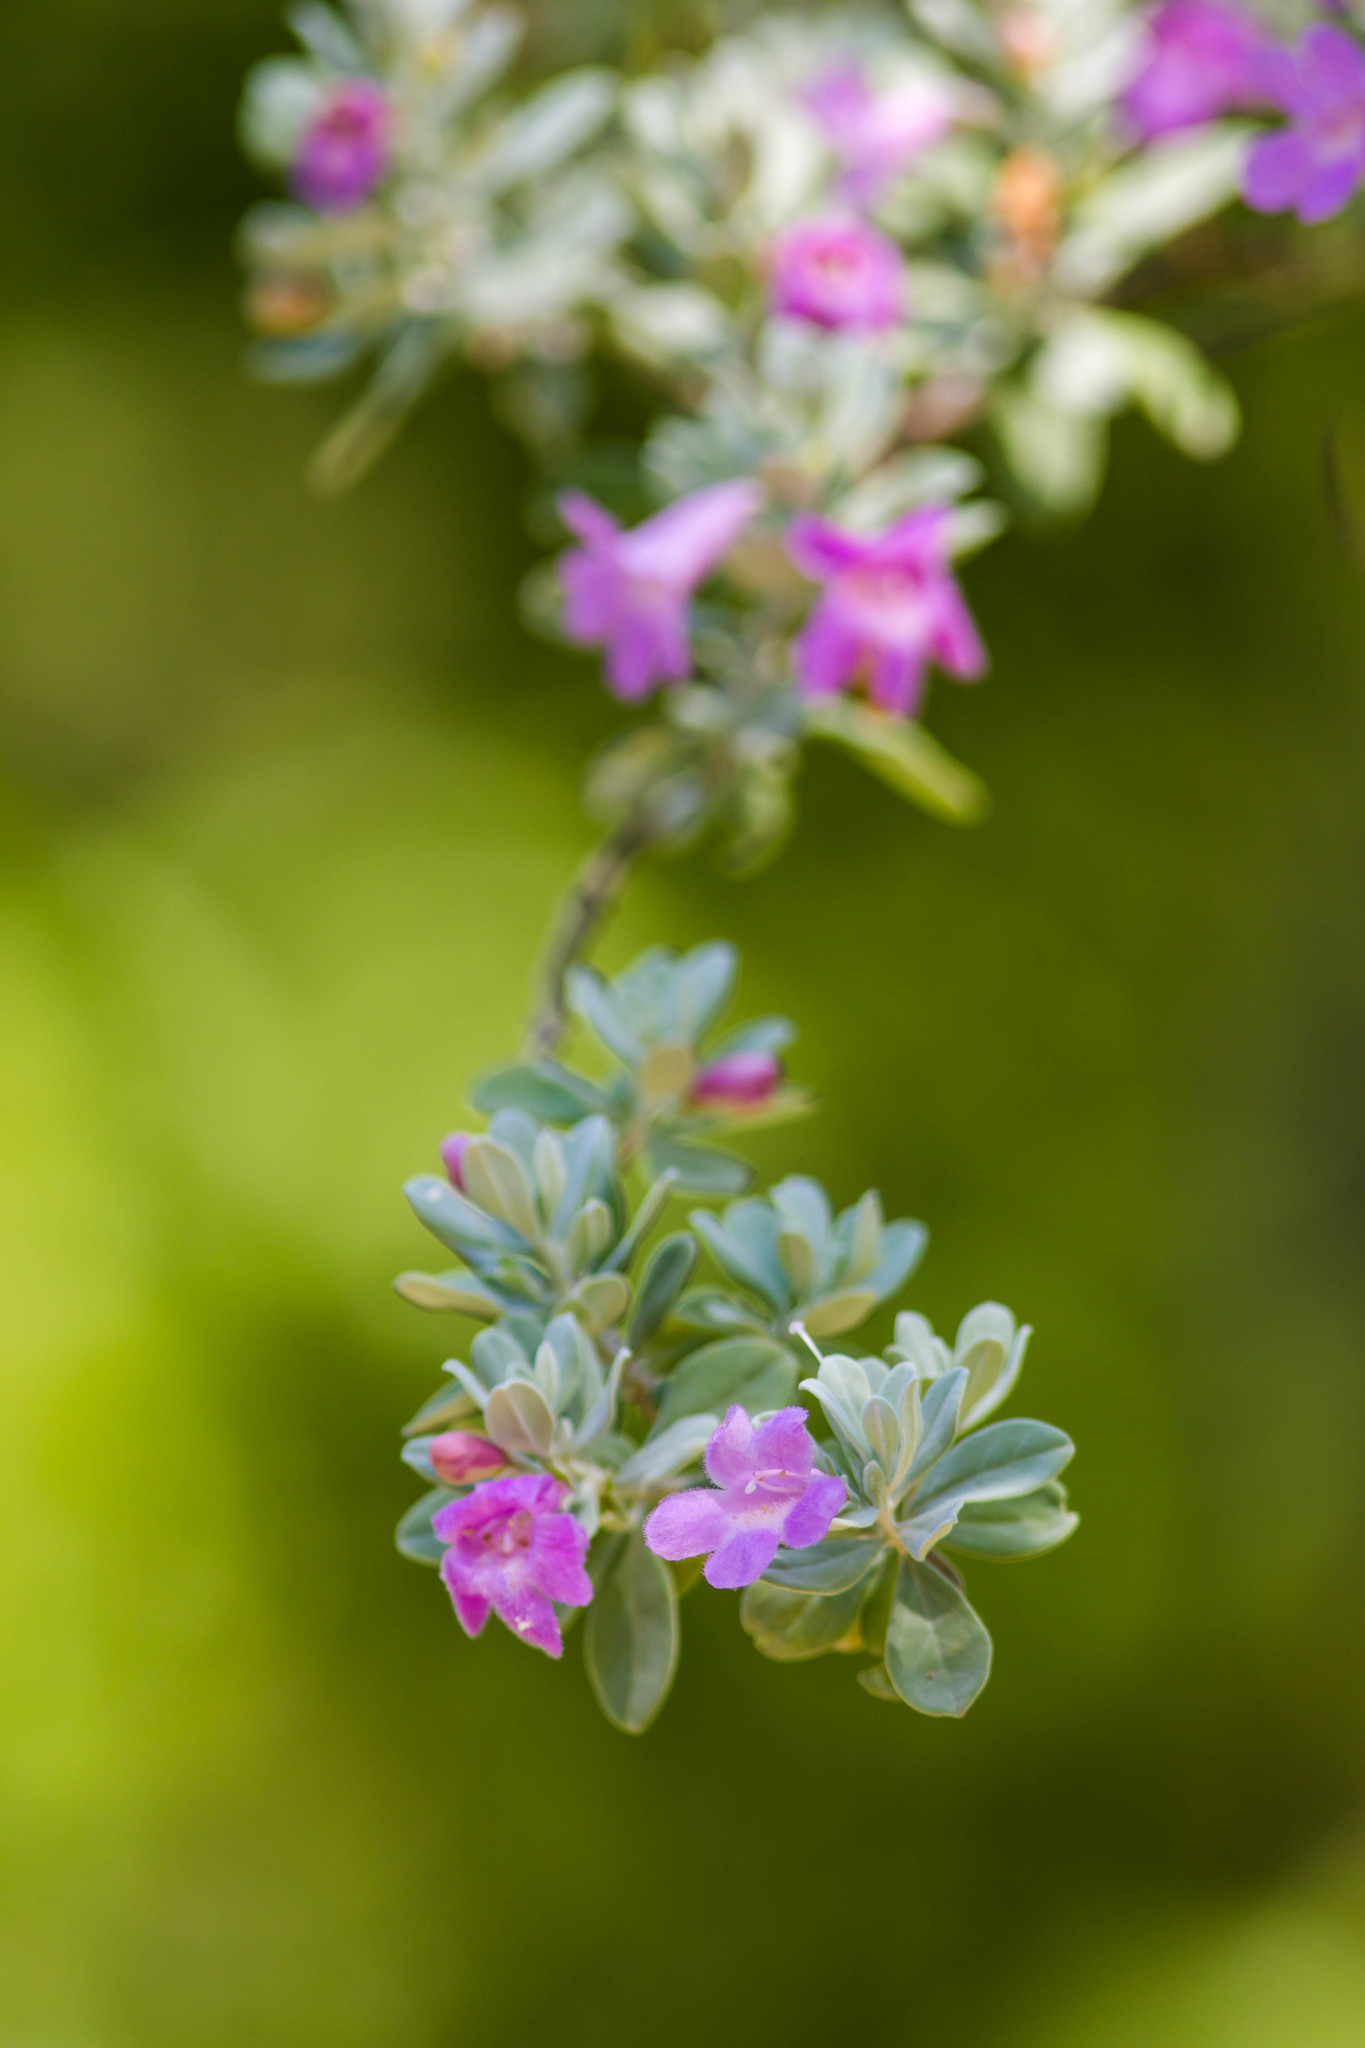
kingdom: Plantae
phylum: Tracheophyta
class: Magnoliopsida
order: Lamiales
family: Scrophulariaceae
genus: Leucophyllum
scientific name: Leucophyllum frutescens
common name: Texas silverleaf
